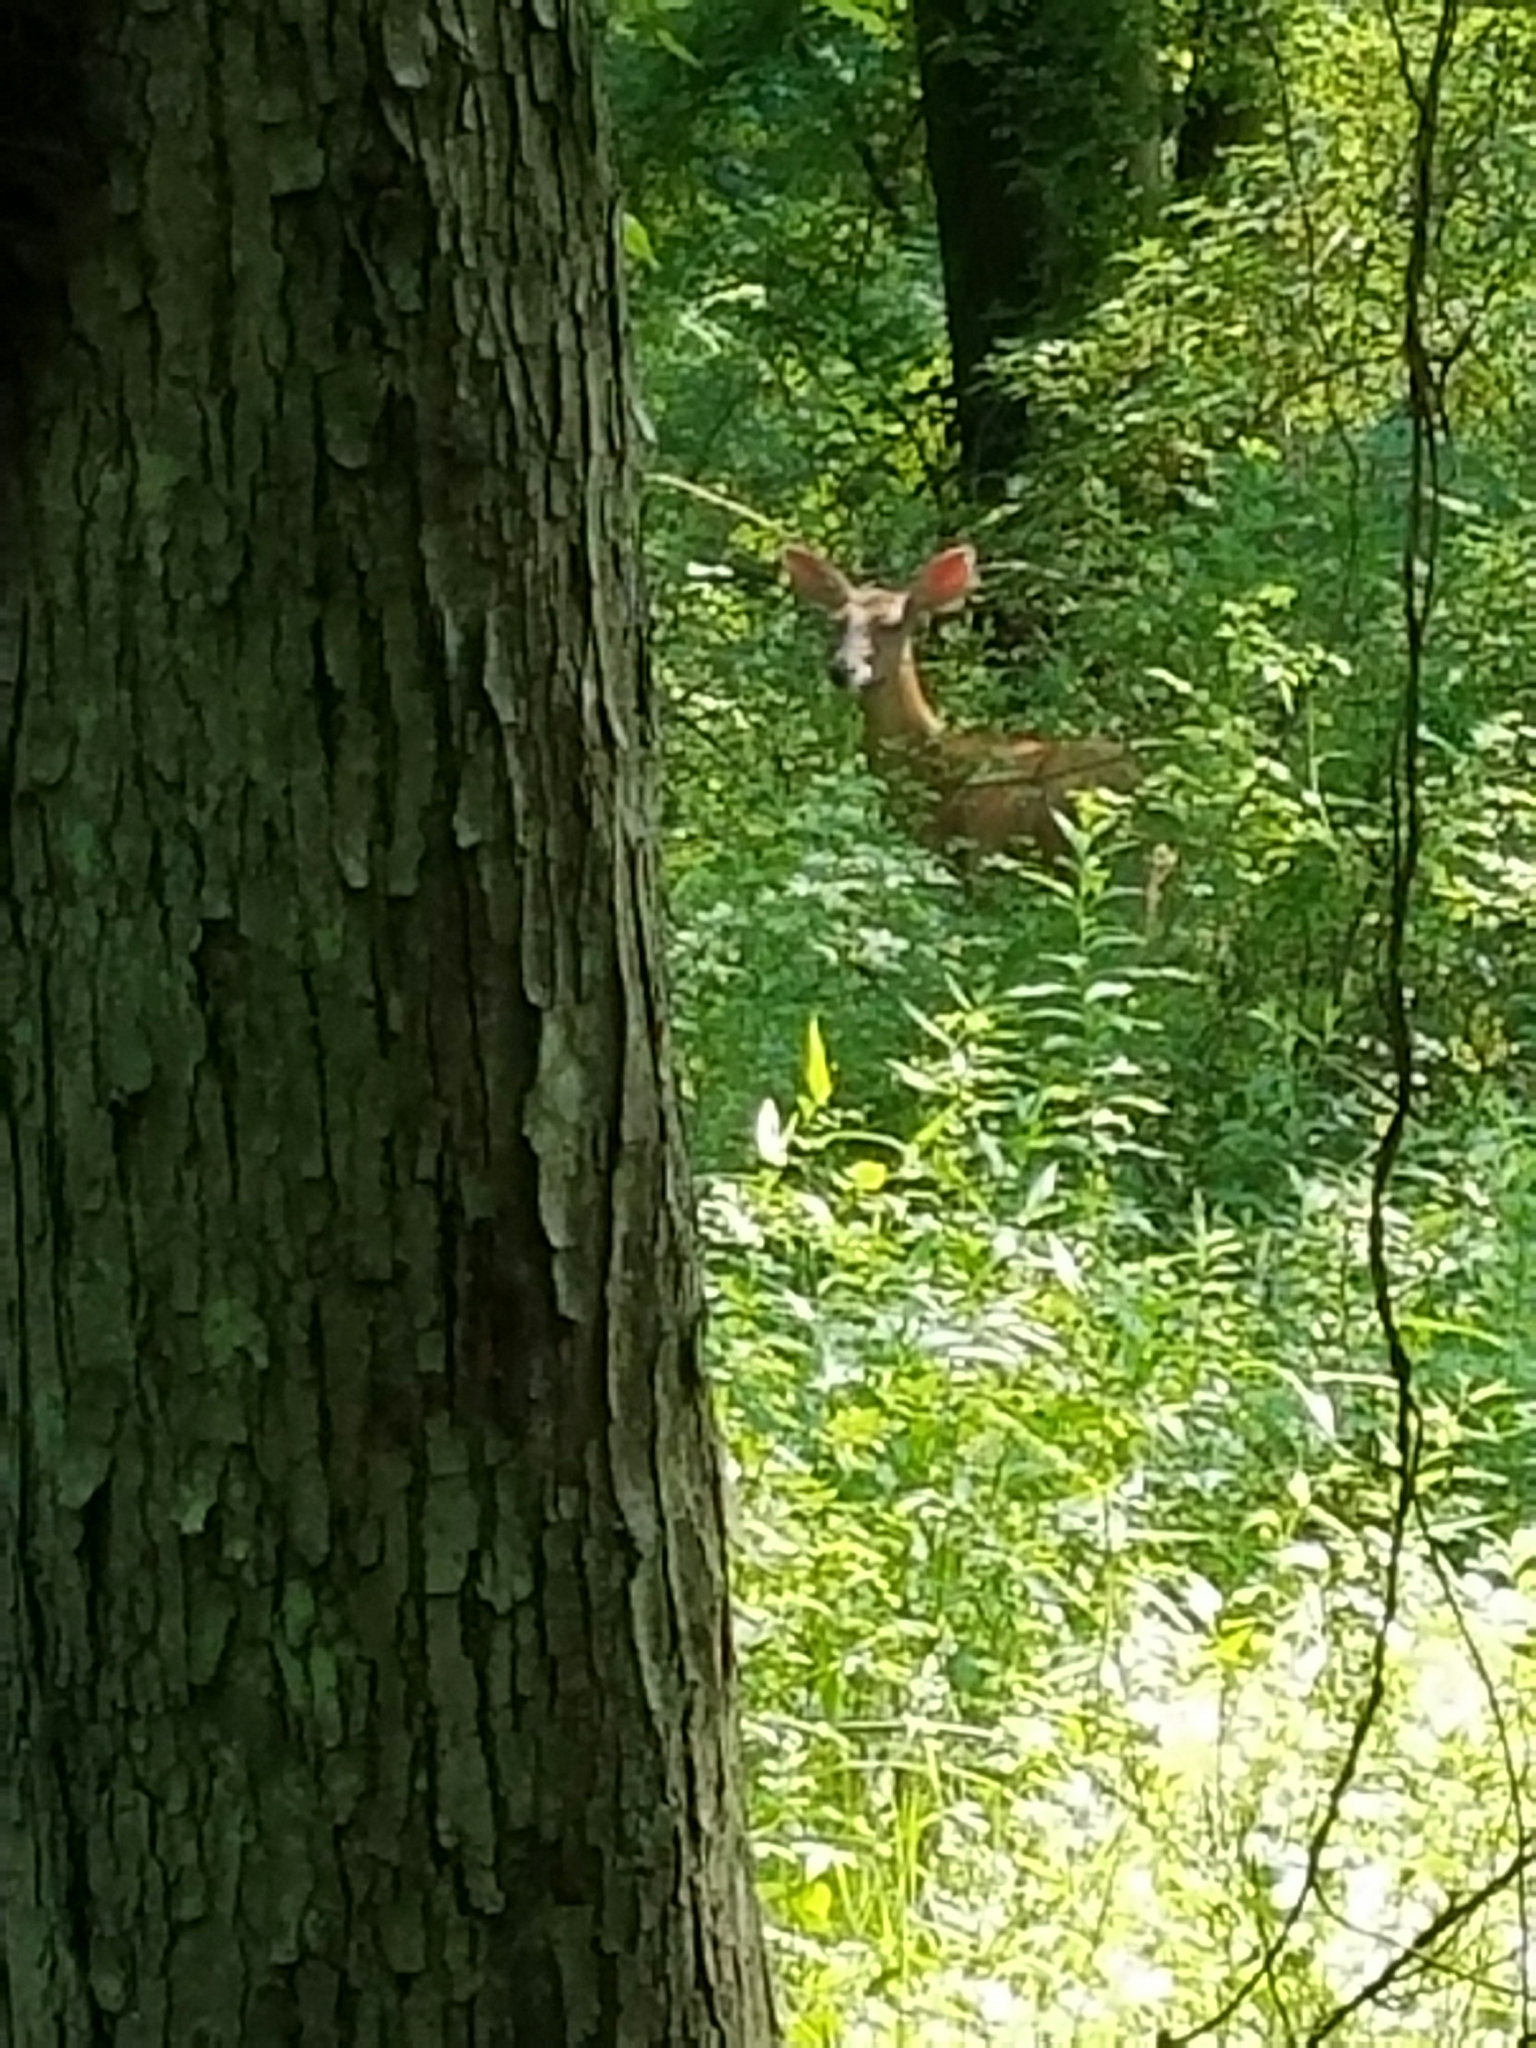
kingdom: Animalia
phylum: Chordata
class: Mammalia
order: Artiodactyla
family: Cervidae
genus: Odocoileus
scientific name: Odocoileus virginianus
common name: White-tailed deer
